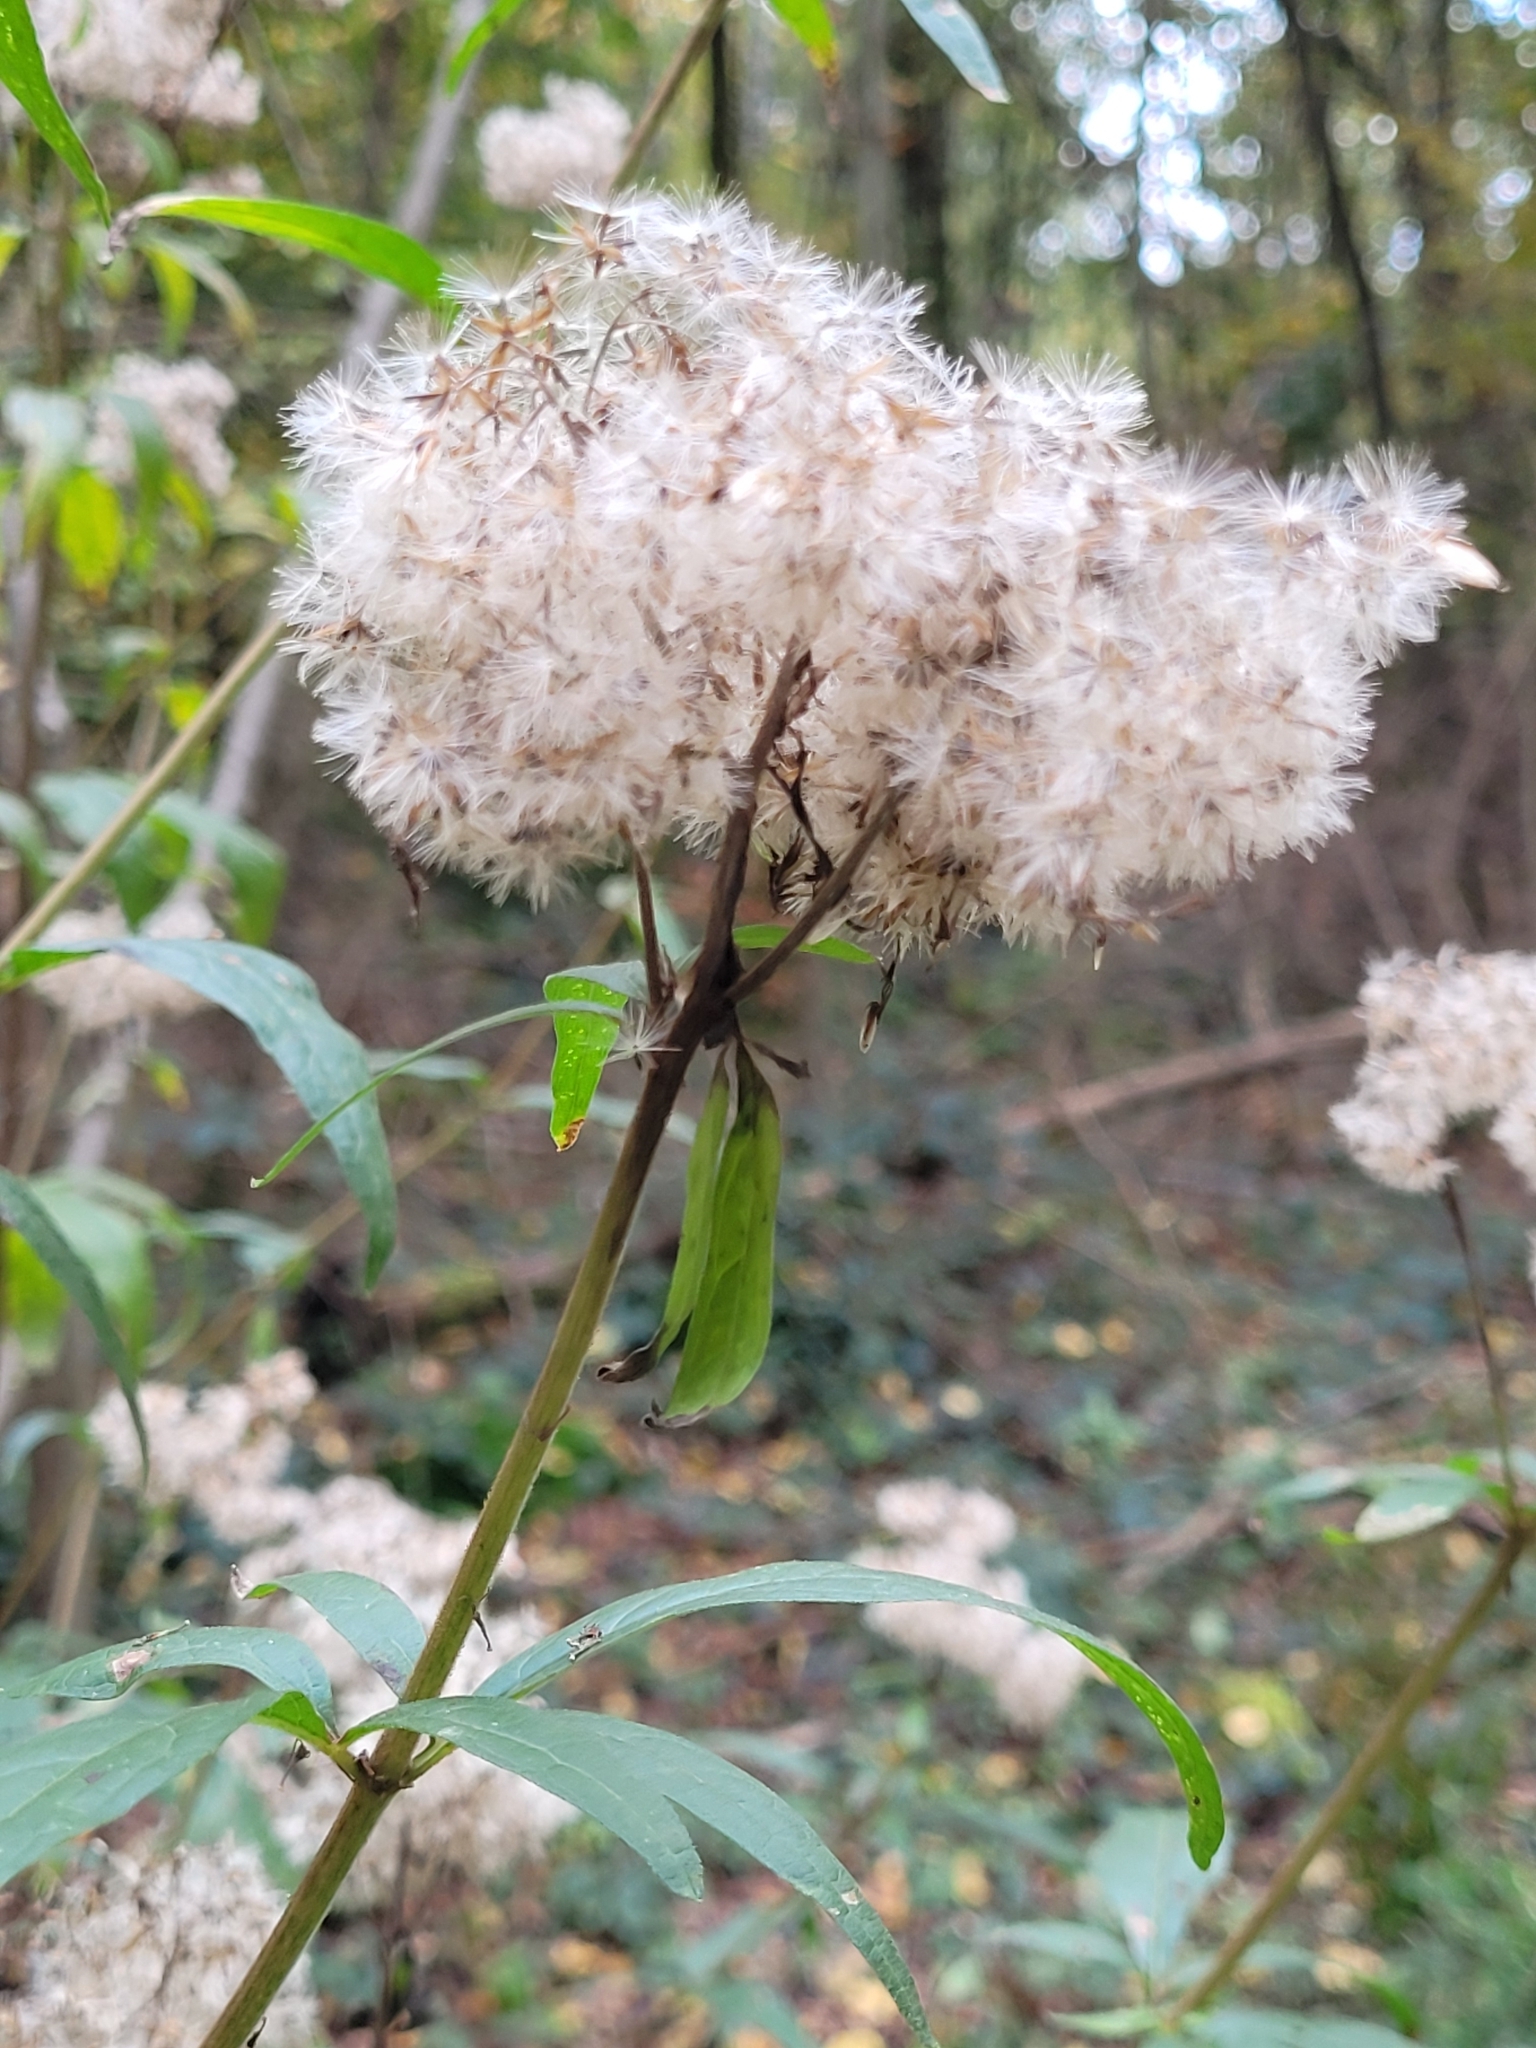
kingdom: Plantae
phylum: Tracheophyta
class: Magnoliopsida
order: Asterales
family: Asteraceae
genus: Eupatorium
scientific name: Eupatorium cannabinum
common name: Hemp-agrimony
